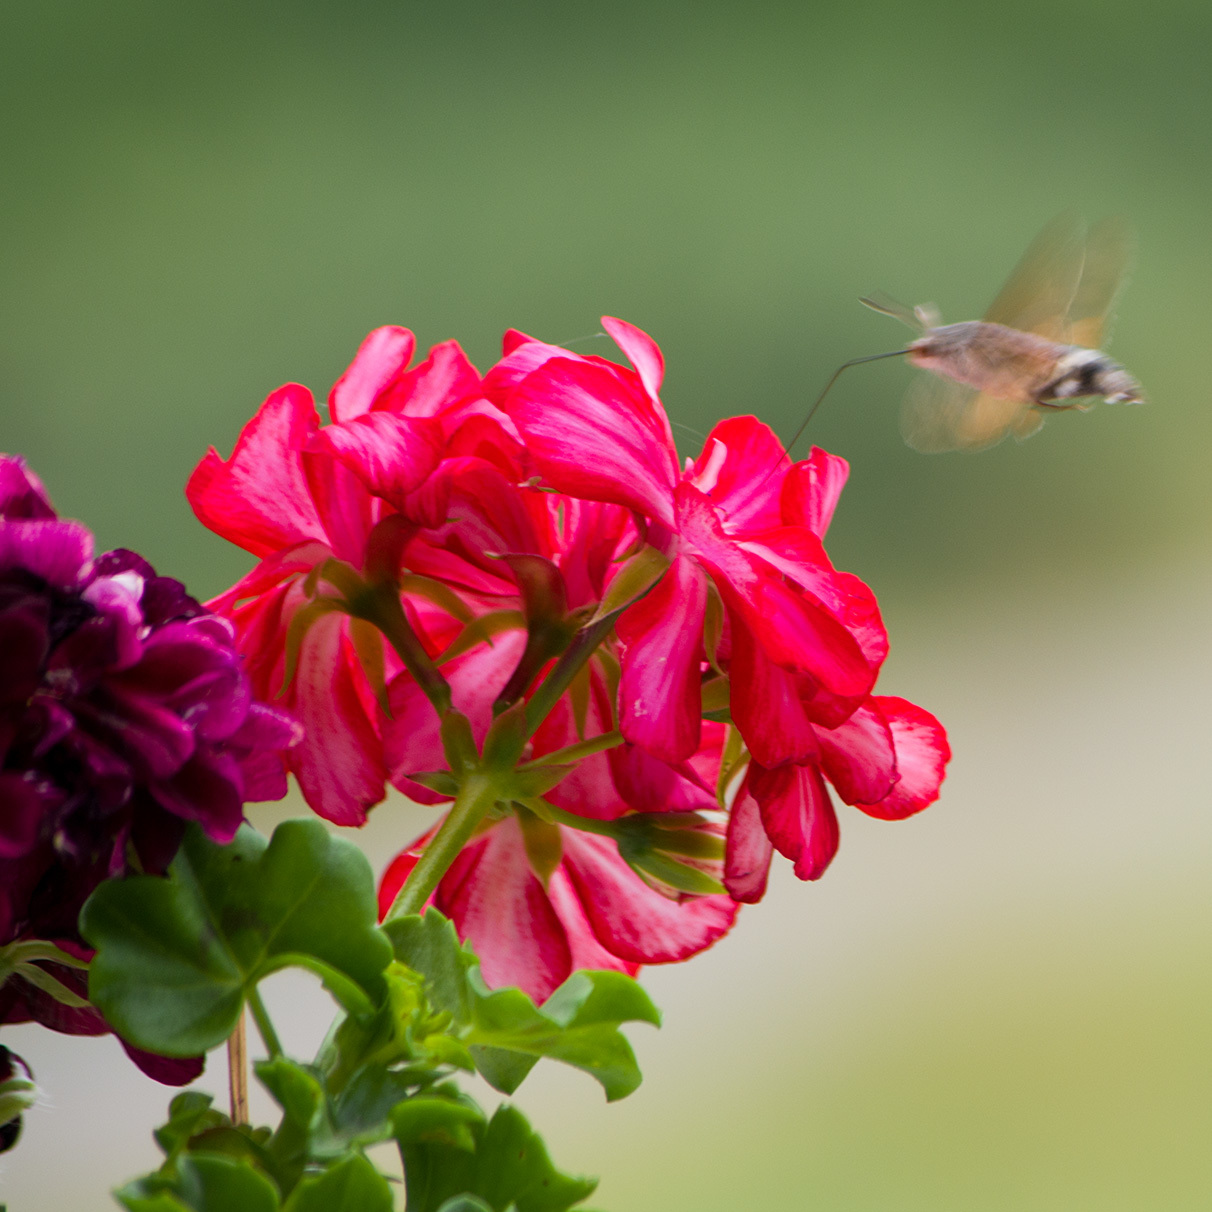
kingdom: Animalia
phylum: Arthropoda
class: Insecta
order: Lepidoptera
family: Sphingidae
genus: Macroglossum
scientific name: Macroglossum stellatarum
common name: Humming-bird hawk-moth
